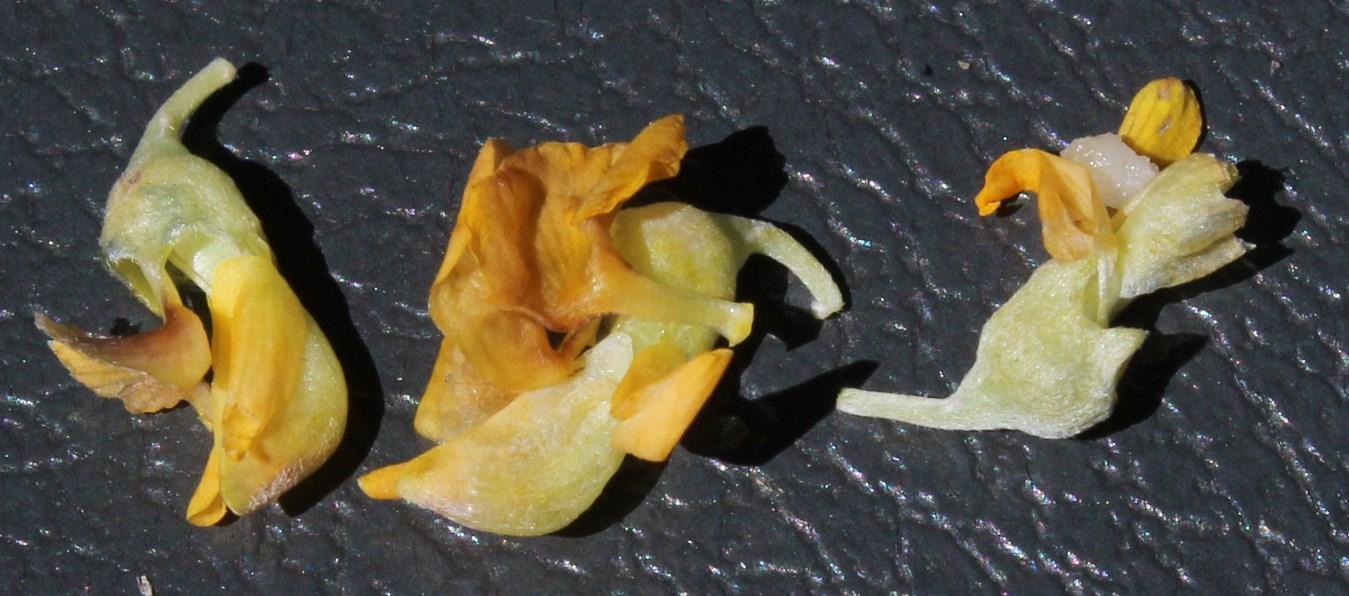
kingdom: Plantae
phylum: Tracheophyta
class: Magnoliopsida
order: Fabales
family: Fabaceae
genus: Calobota
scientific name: Calobota angustifolia
